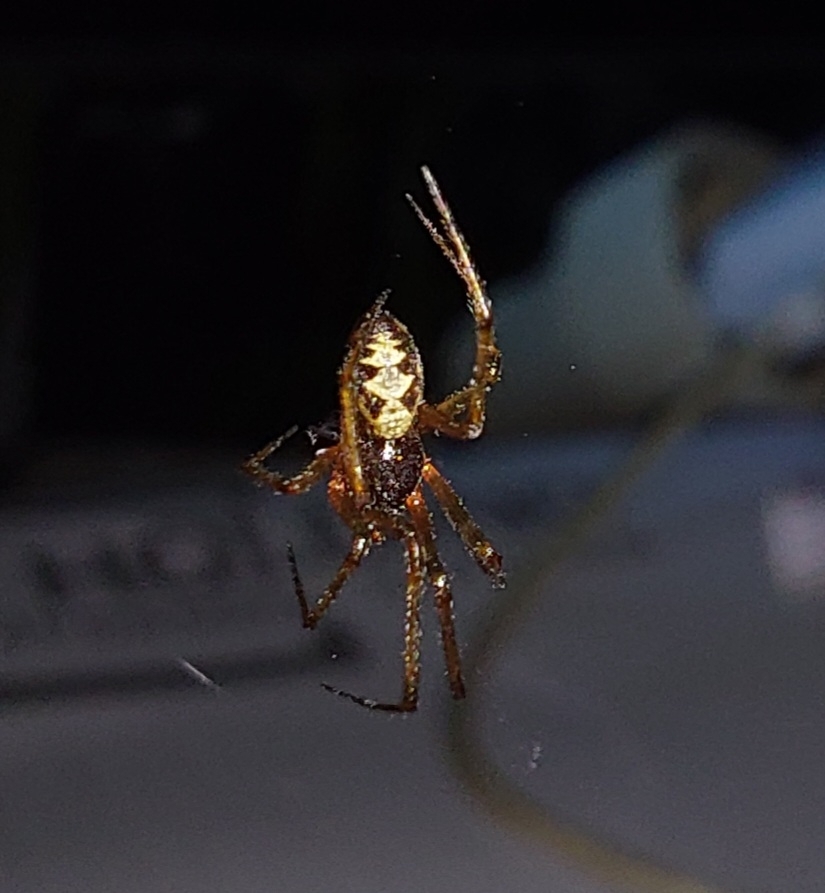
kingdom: Animalia
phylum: Arthropoda
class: Arachnida
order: Araneae
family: Theridiidae
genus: Steatoda
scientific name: Steatoda triangulosa
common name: Triangulate bud spider
